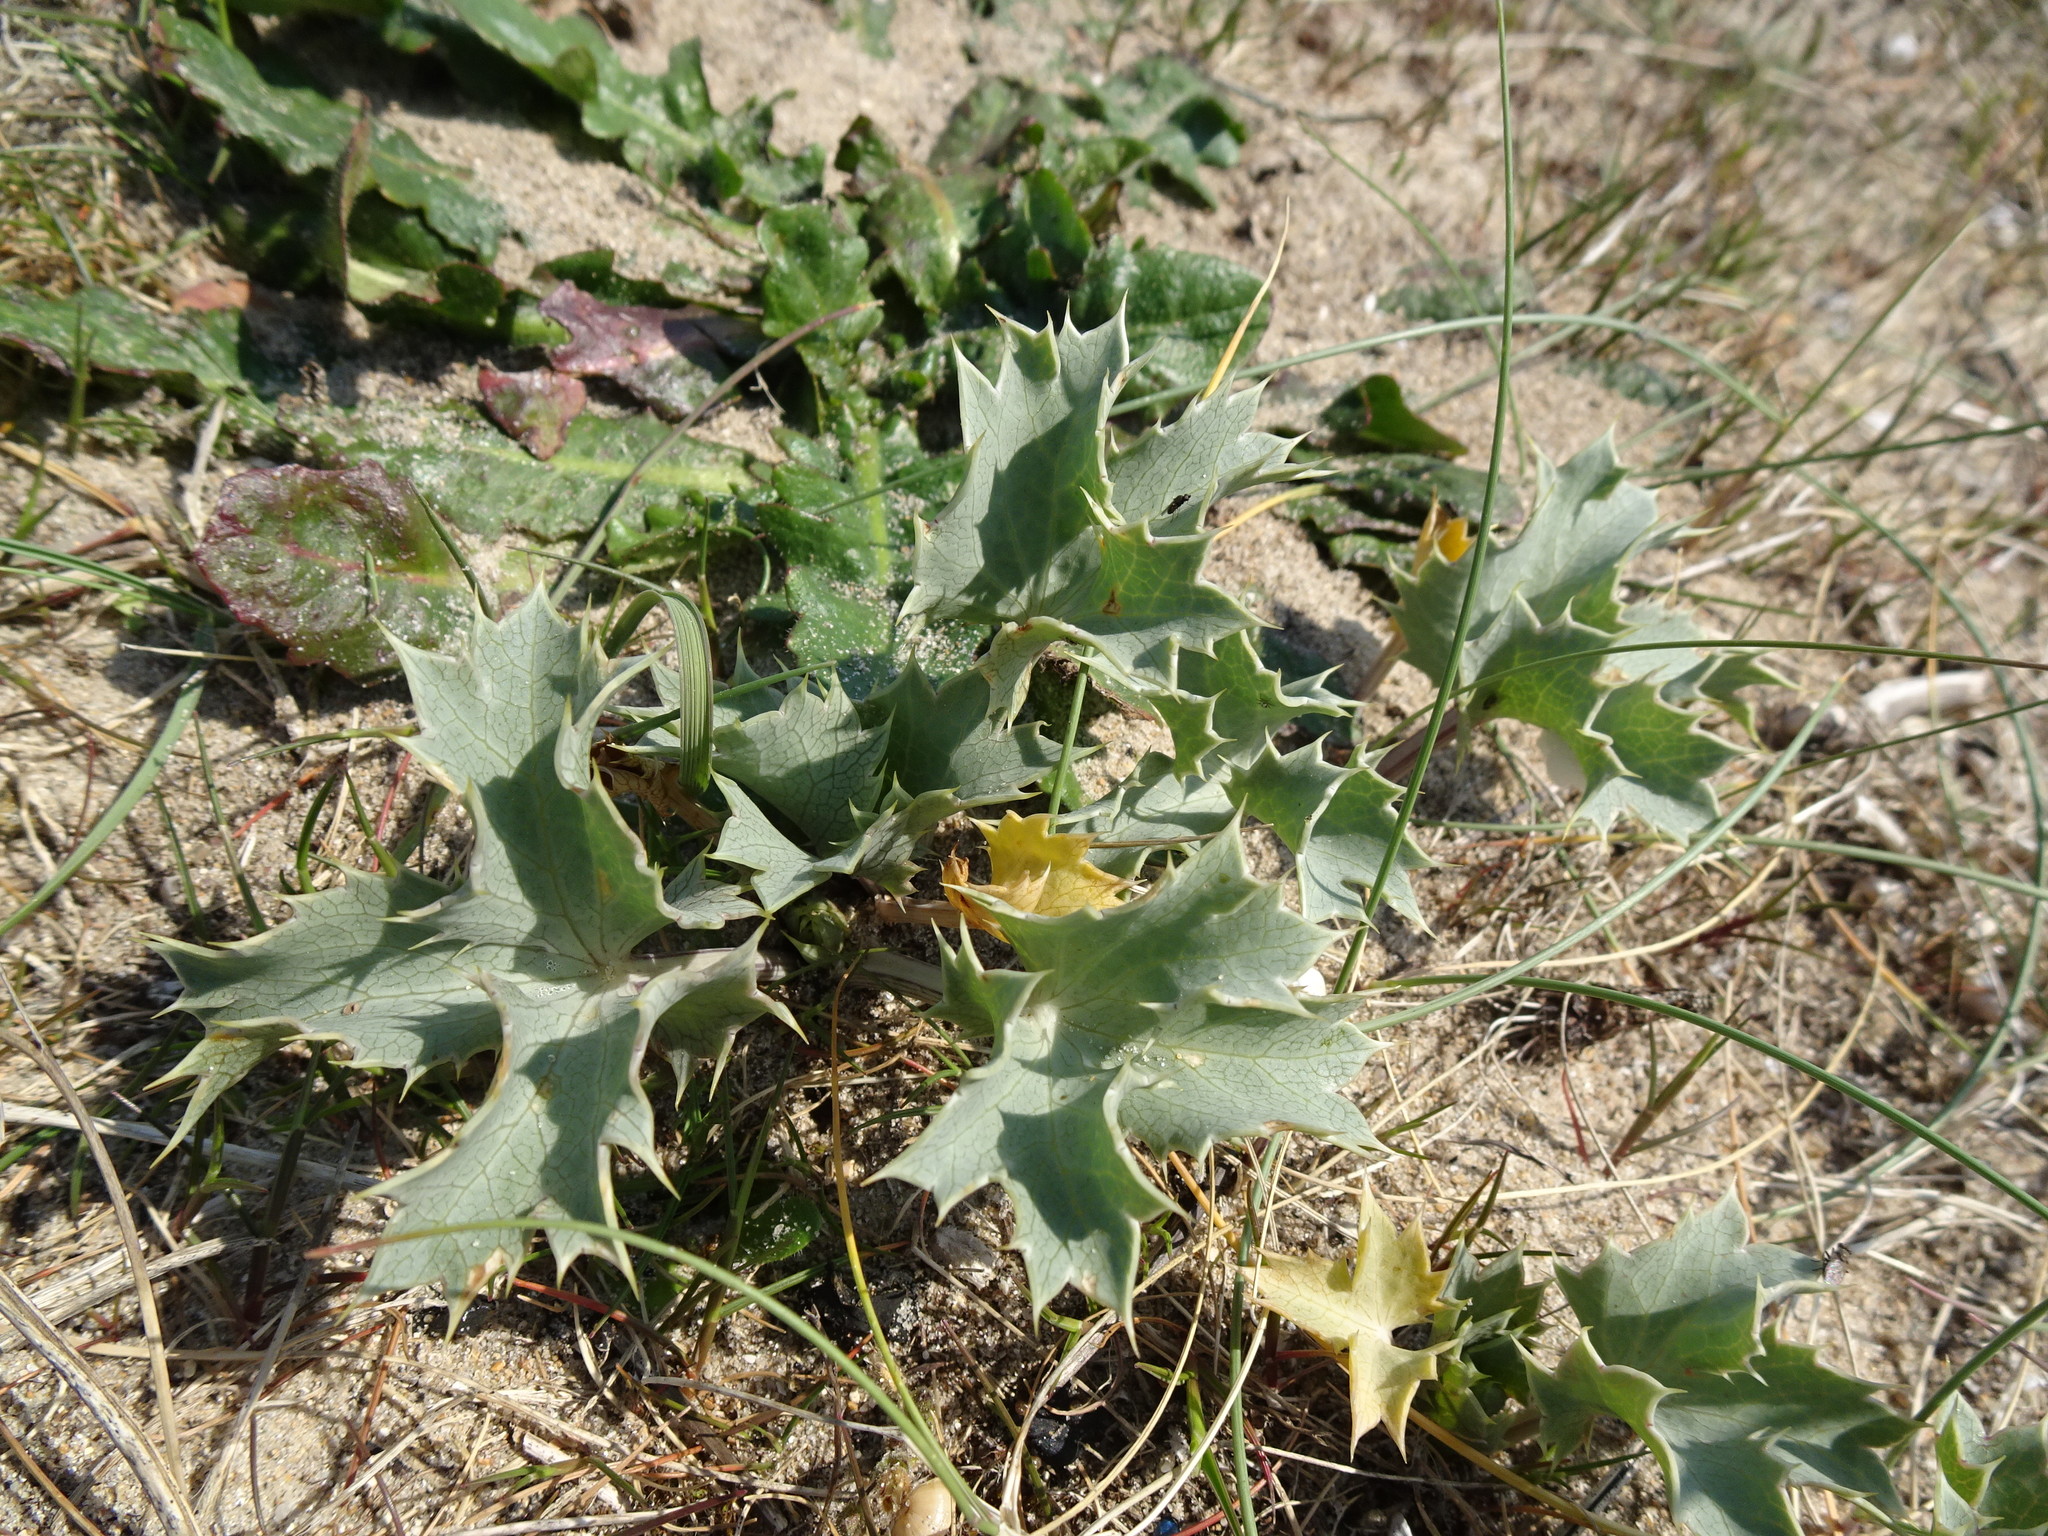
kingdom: Plantae
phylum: Tracheophyta
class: Magnoliopsida
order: Apiales
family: Apiaceae
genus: Eryngium
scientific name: Eryngium maritimum
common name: Sea-holly
